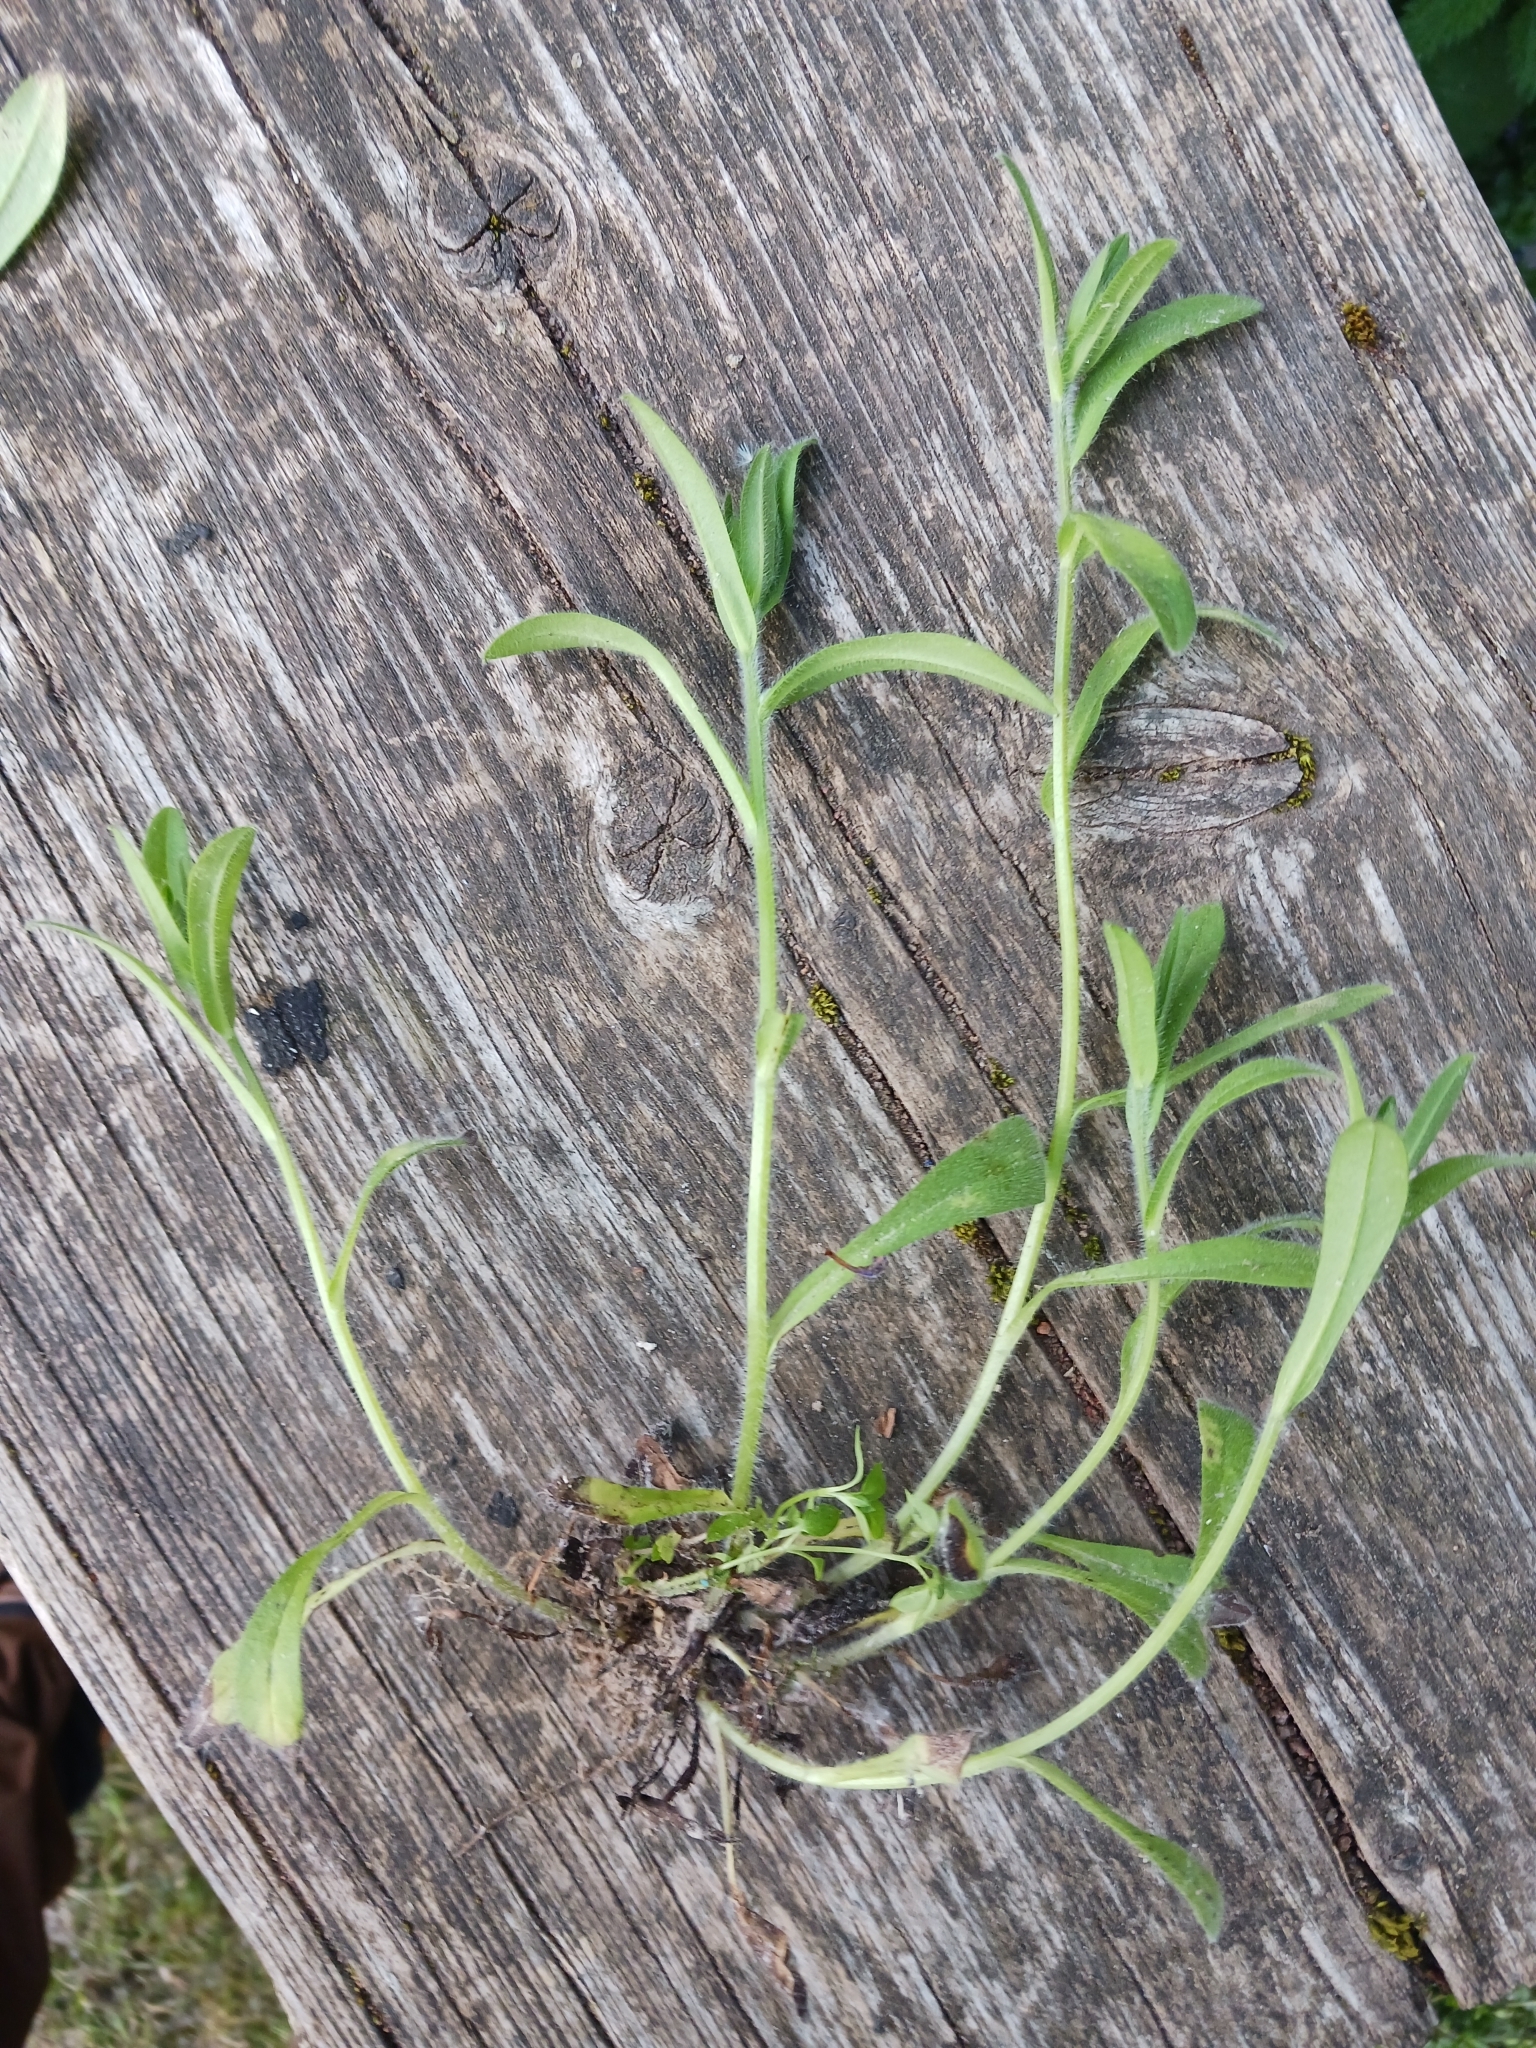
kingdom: Plantae
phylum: Tracheophyta
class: Magnoliopsida
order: Boraginales
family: Boraginaceae
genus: Aegonychon
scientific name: Aegonychon purpurocaeruleum
